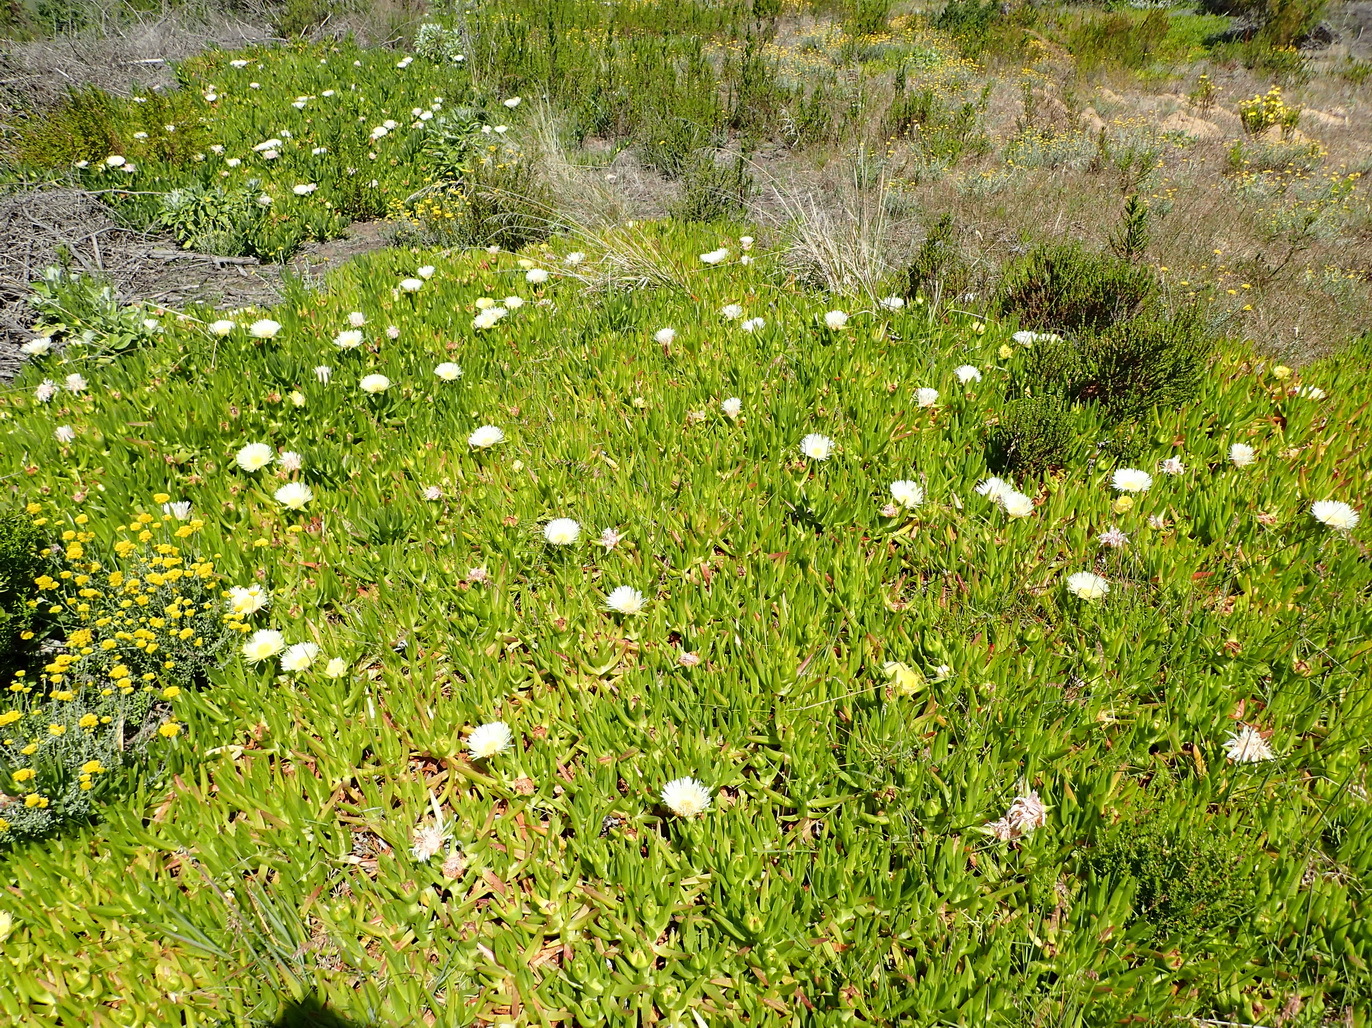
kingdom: Plantae
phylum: Tracheophyta
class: Magnoliopsida
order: Caryophyllales
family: Aizoaceae
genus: Carpobrotus
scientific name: Carpobrotus edulis
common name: Hottentot-fig
